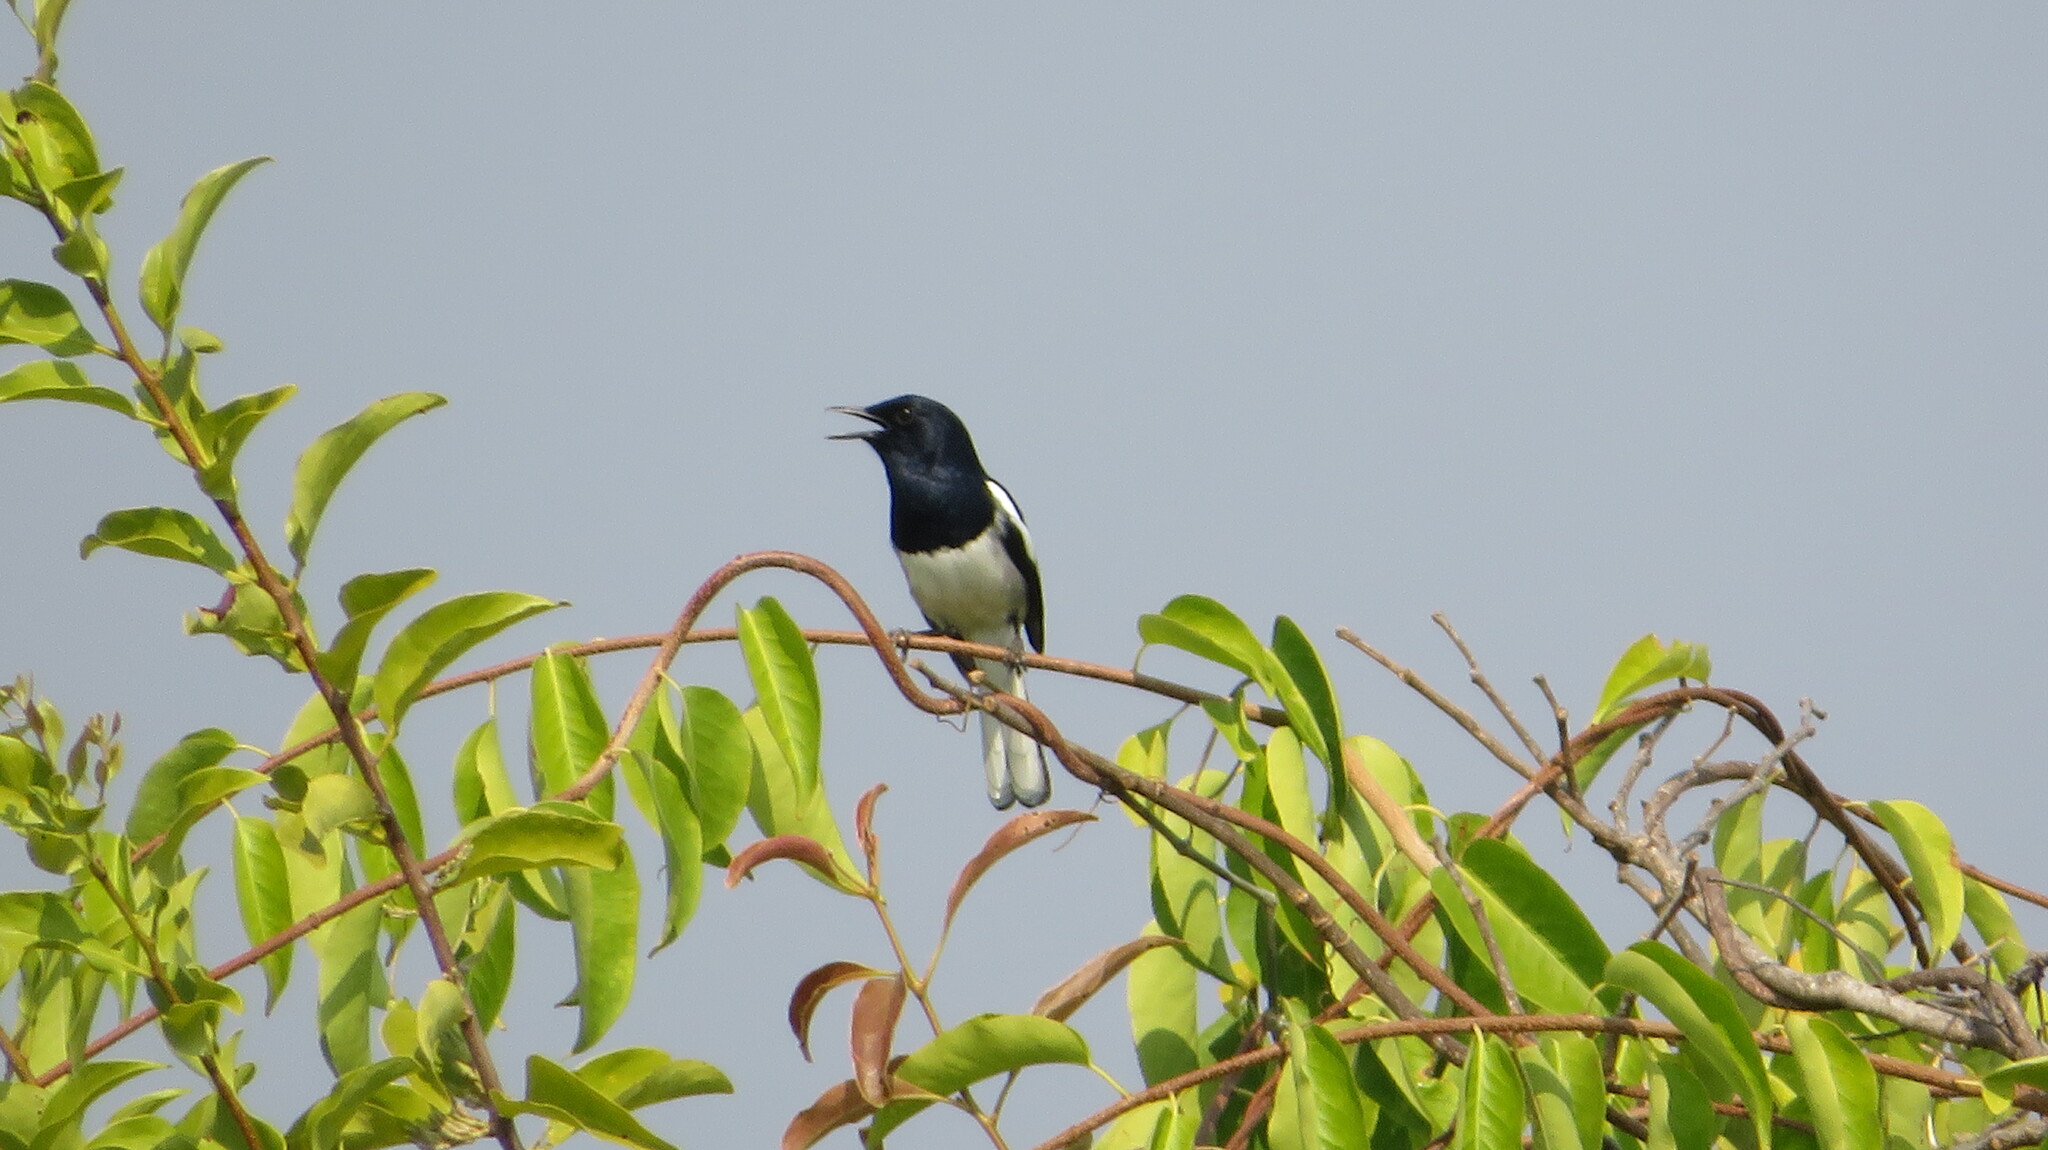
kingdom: Animalia
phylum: Chordata
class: Aves
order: Passeriformes
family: Muscicapidae
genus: Copsychus
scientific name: Copsychus saularis
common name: Oriental magpie-robin
